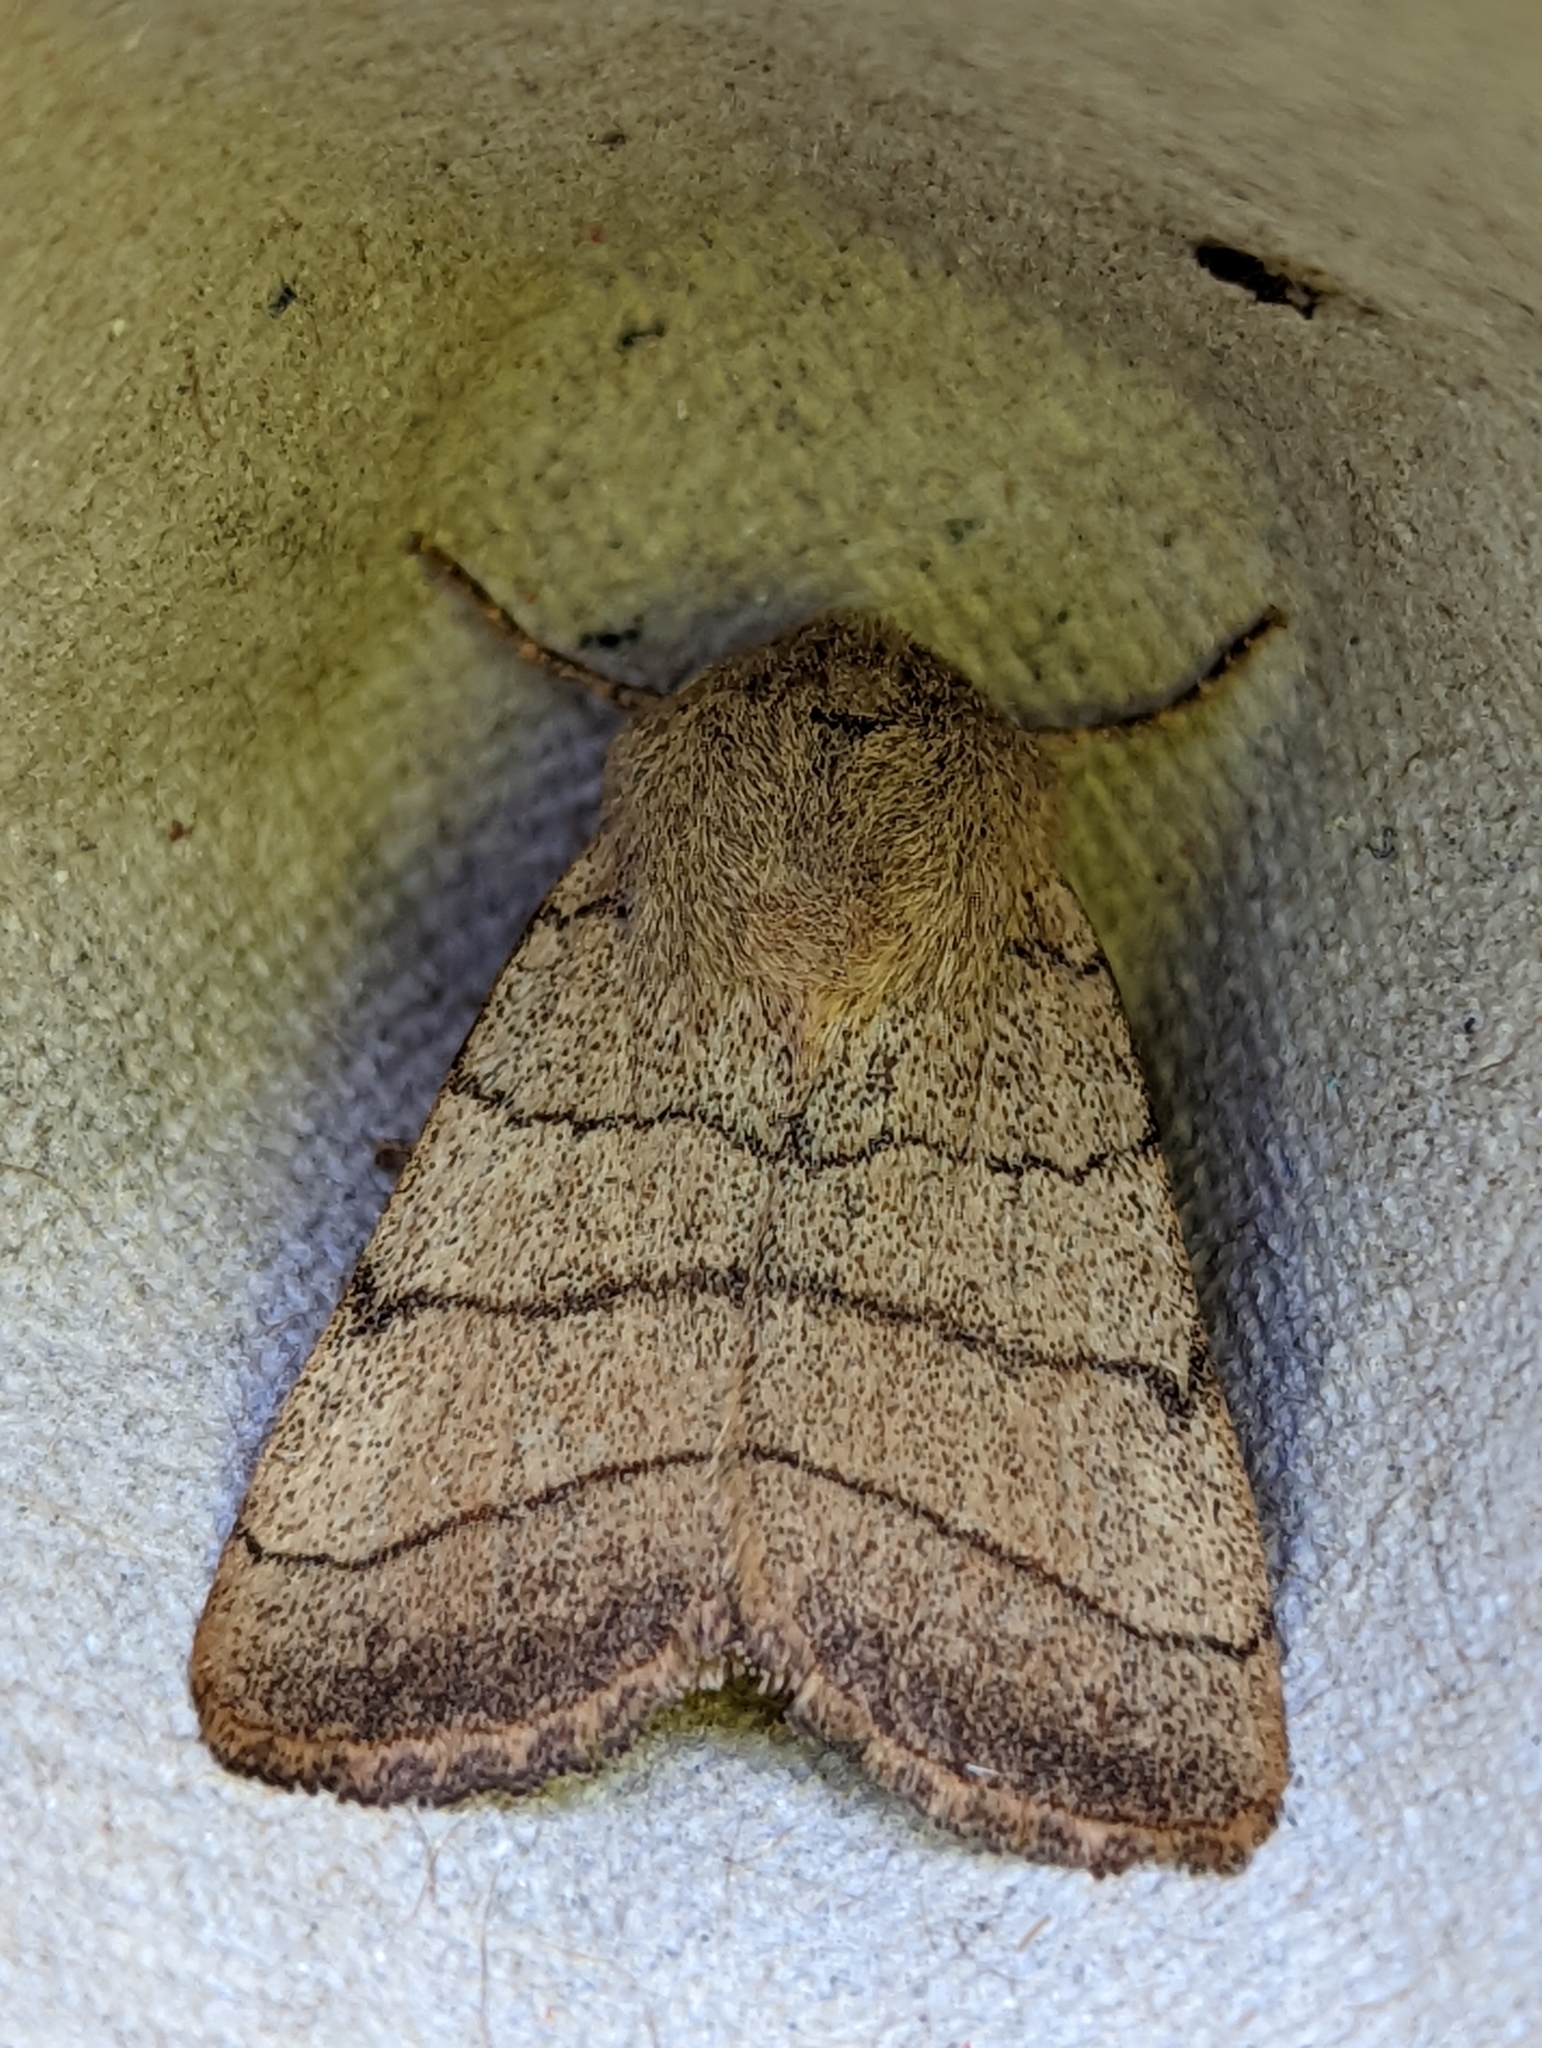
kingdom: Animalia
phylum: Arthropoda
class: Insecta
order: Lepidoptera
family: Noctuidae
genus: Charanyca
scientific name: Charanyca trigrammica
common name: Treble lines
